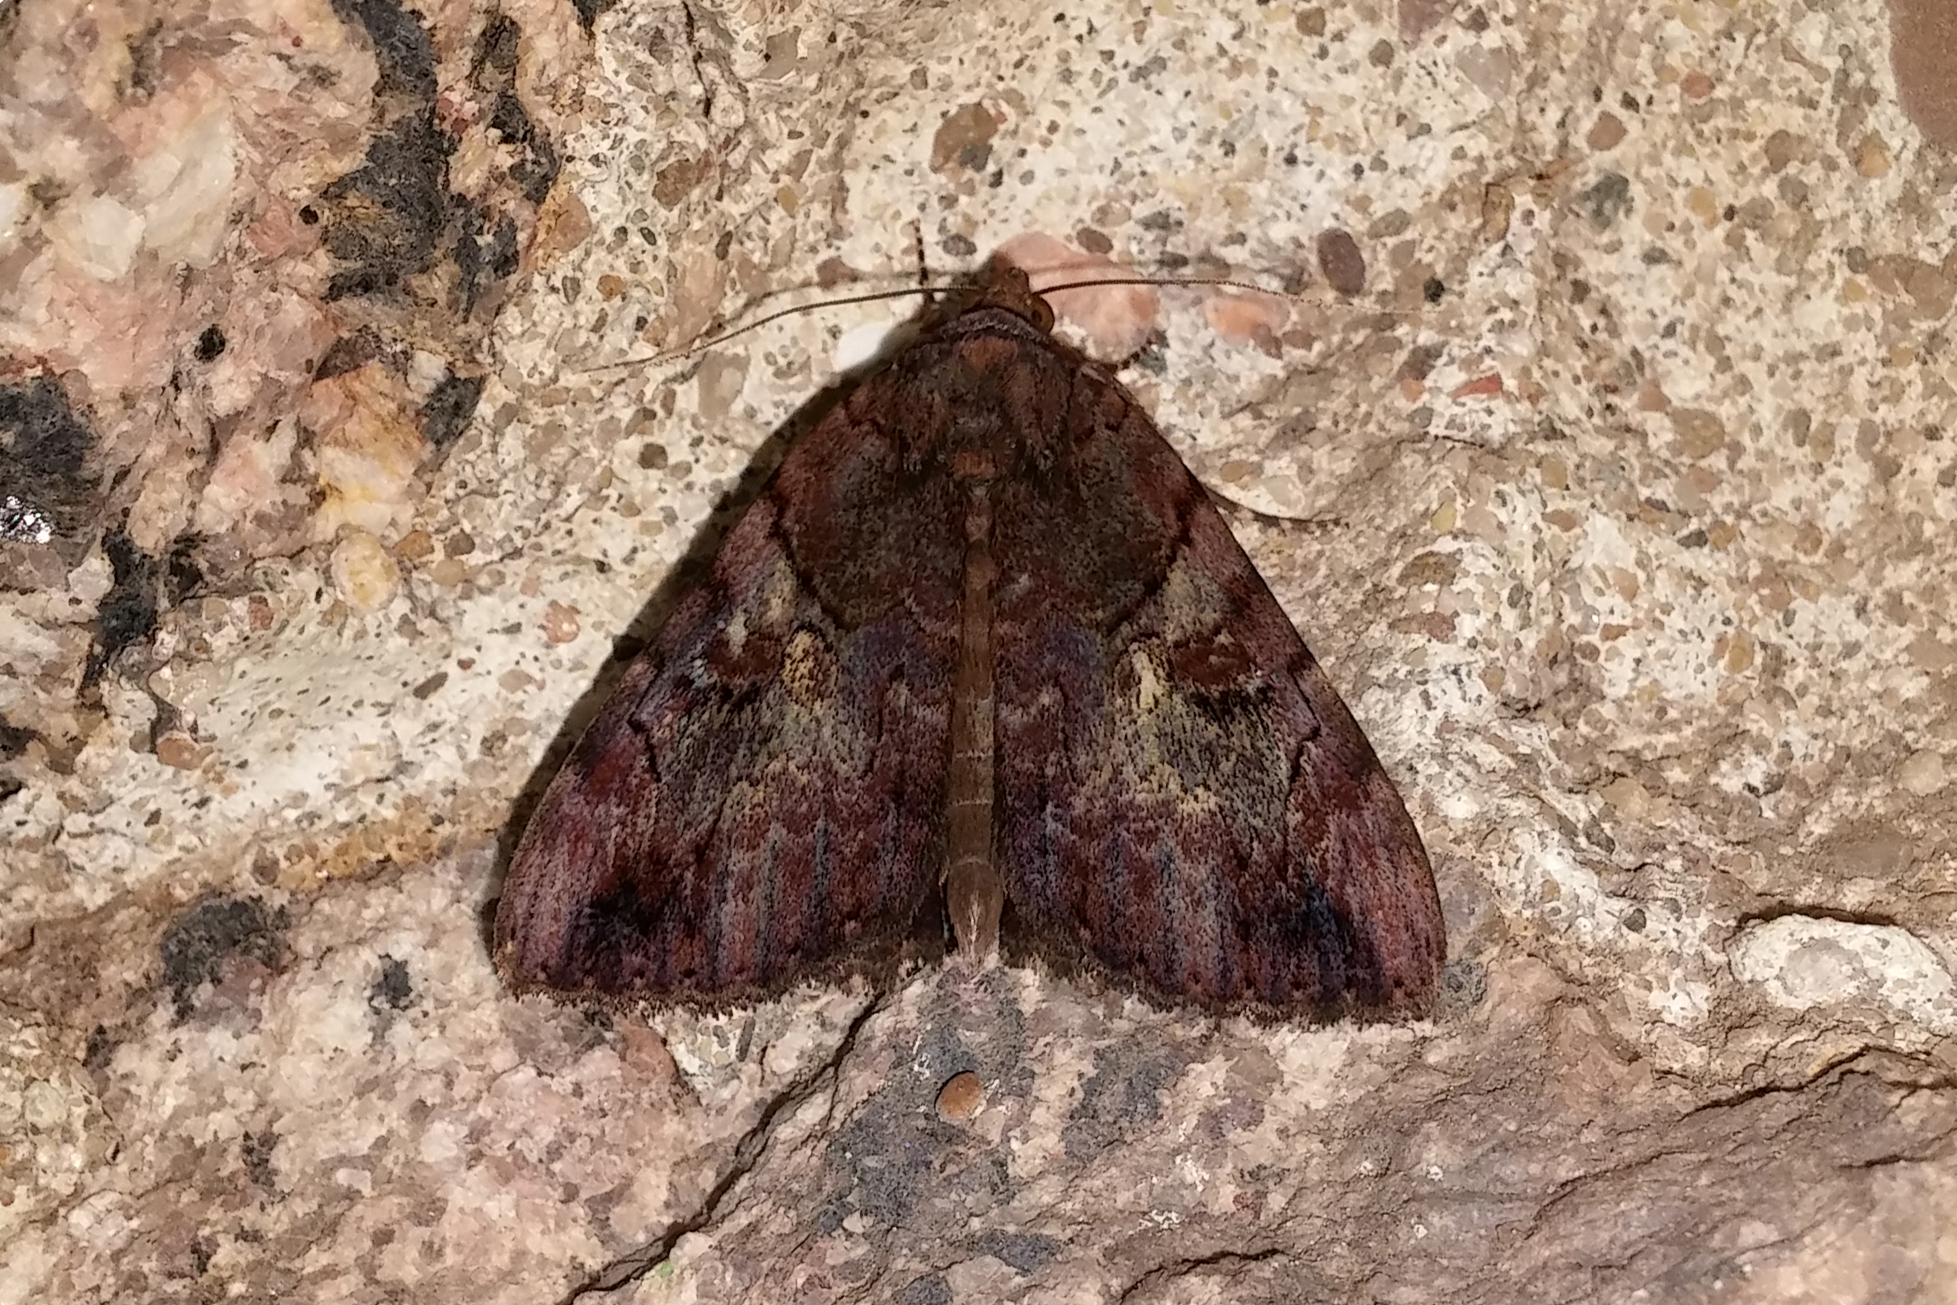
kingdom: Animalia
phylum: Arthropoda
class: Insecta
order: Lepidoptera
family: Erebidae
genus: Catocala
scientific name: Catocala muliercula
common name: The little wife underwing
